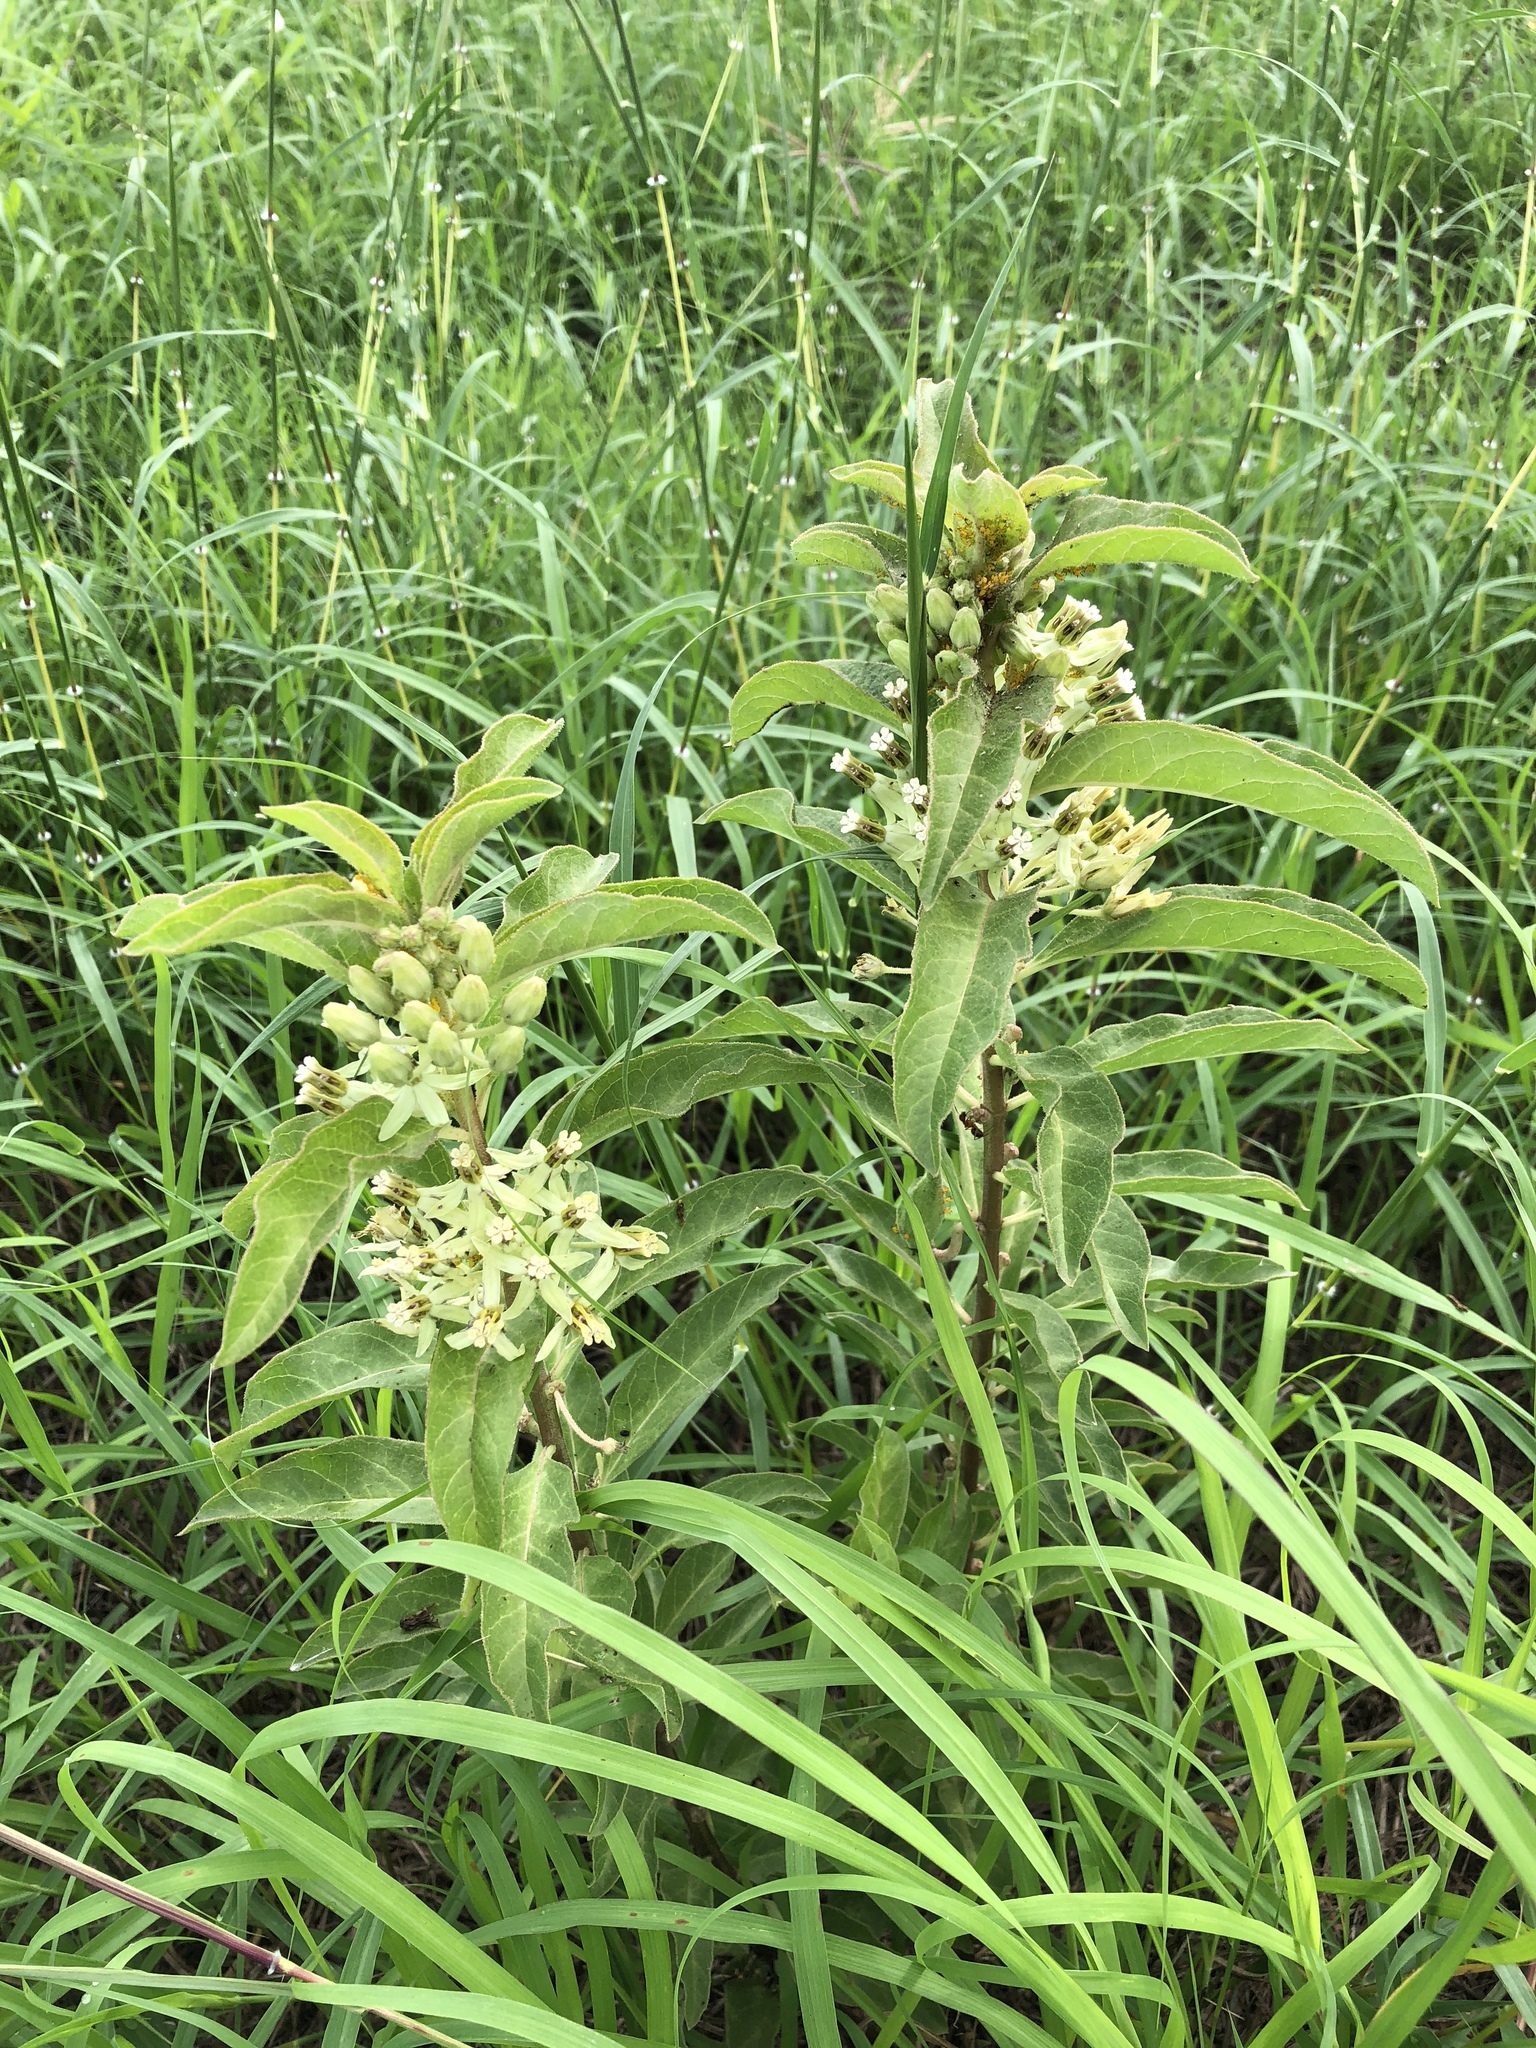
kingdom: Plantae
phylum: Tracheophyta
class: Magnoliopsida
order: Gentianales
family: Apocynaceae
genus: Asclepias
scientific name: Asclepias oenotheroides
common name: Zizotes milkweed
